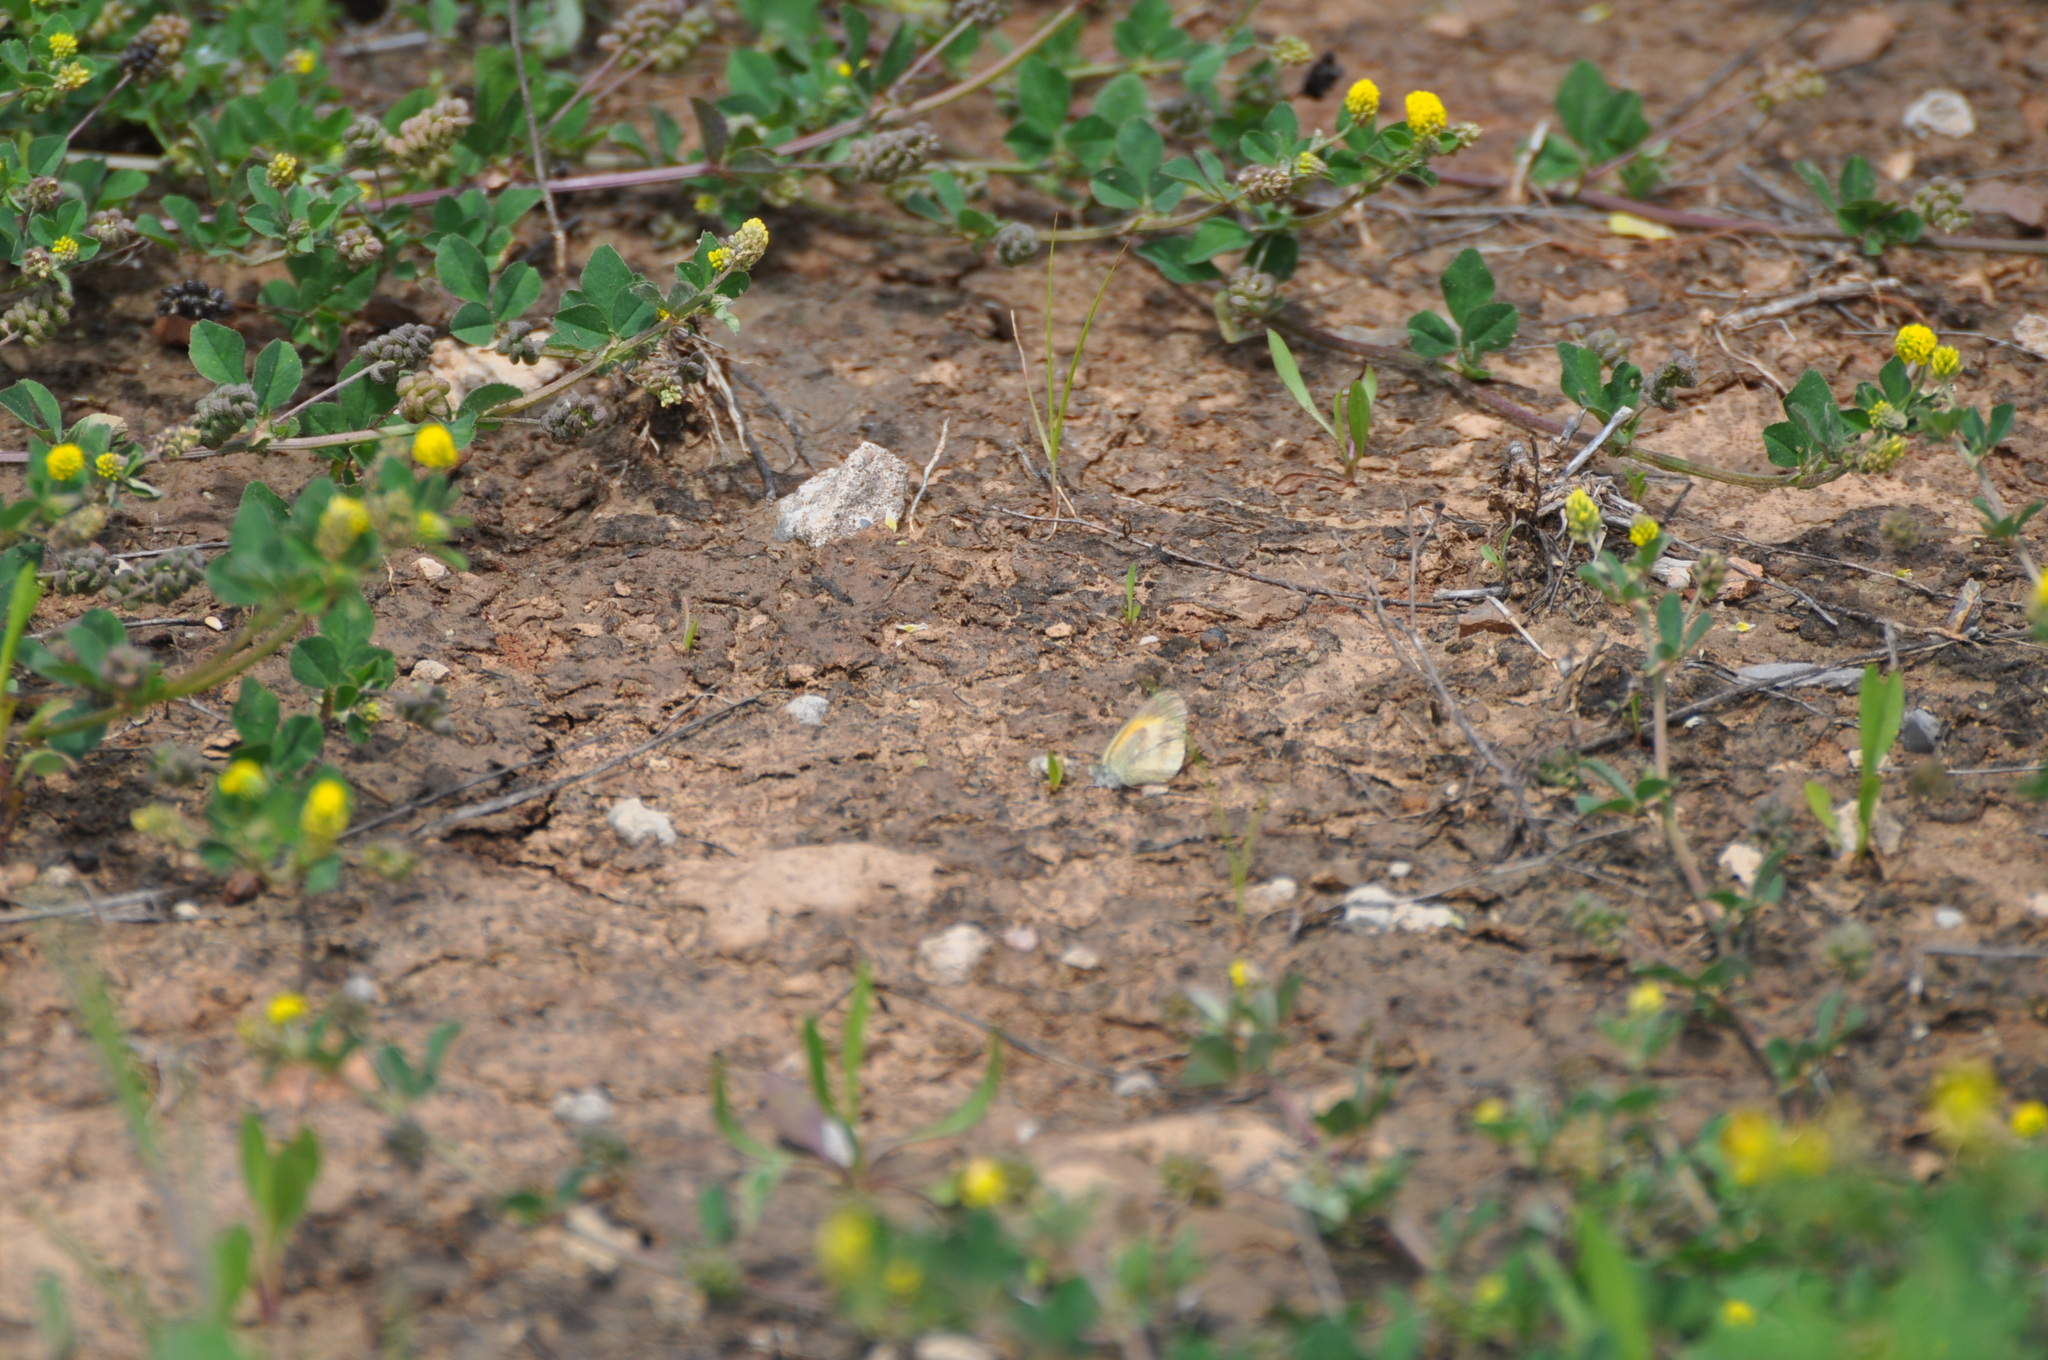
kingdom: Animalia
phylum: Arthropoda
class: Insecta
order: Lepidoptera
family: Pieridae
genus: Nathalis
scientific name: Nathalis iole
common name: Dainty sulphur
